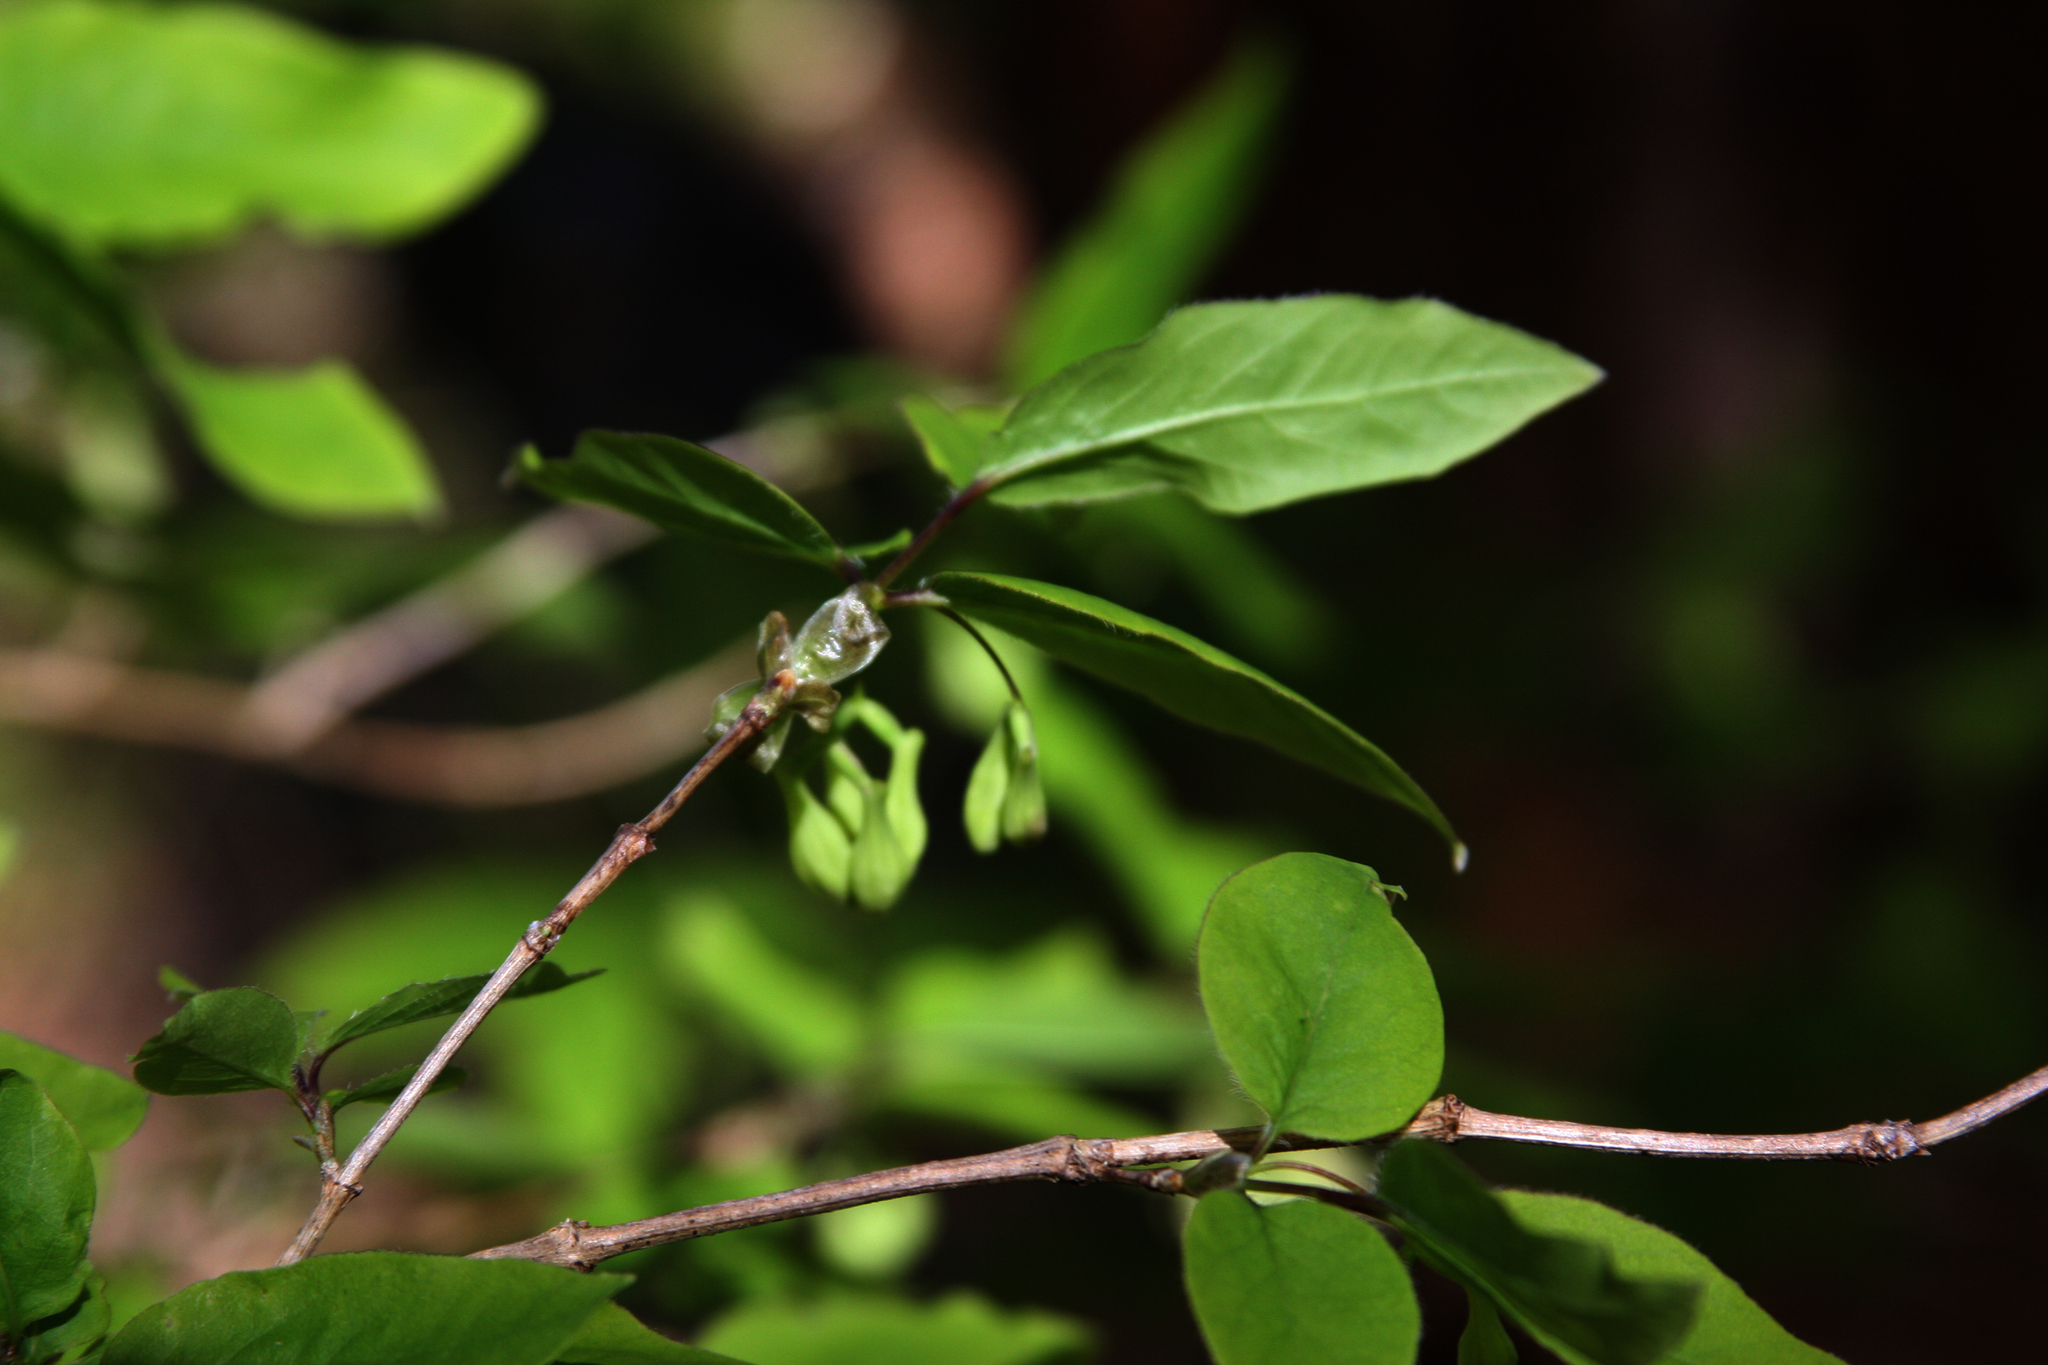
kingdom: Plantae
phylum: Tracheophyta
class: Magnoliopsida
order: Dipsacales
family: Caprifoliaceae
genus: Lonicera
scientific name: Lonicera canadensis
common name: American fly-honeysuckle
